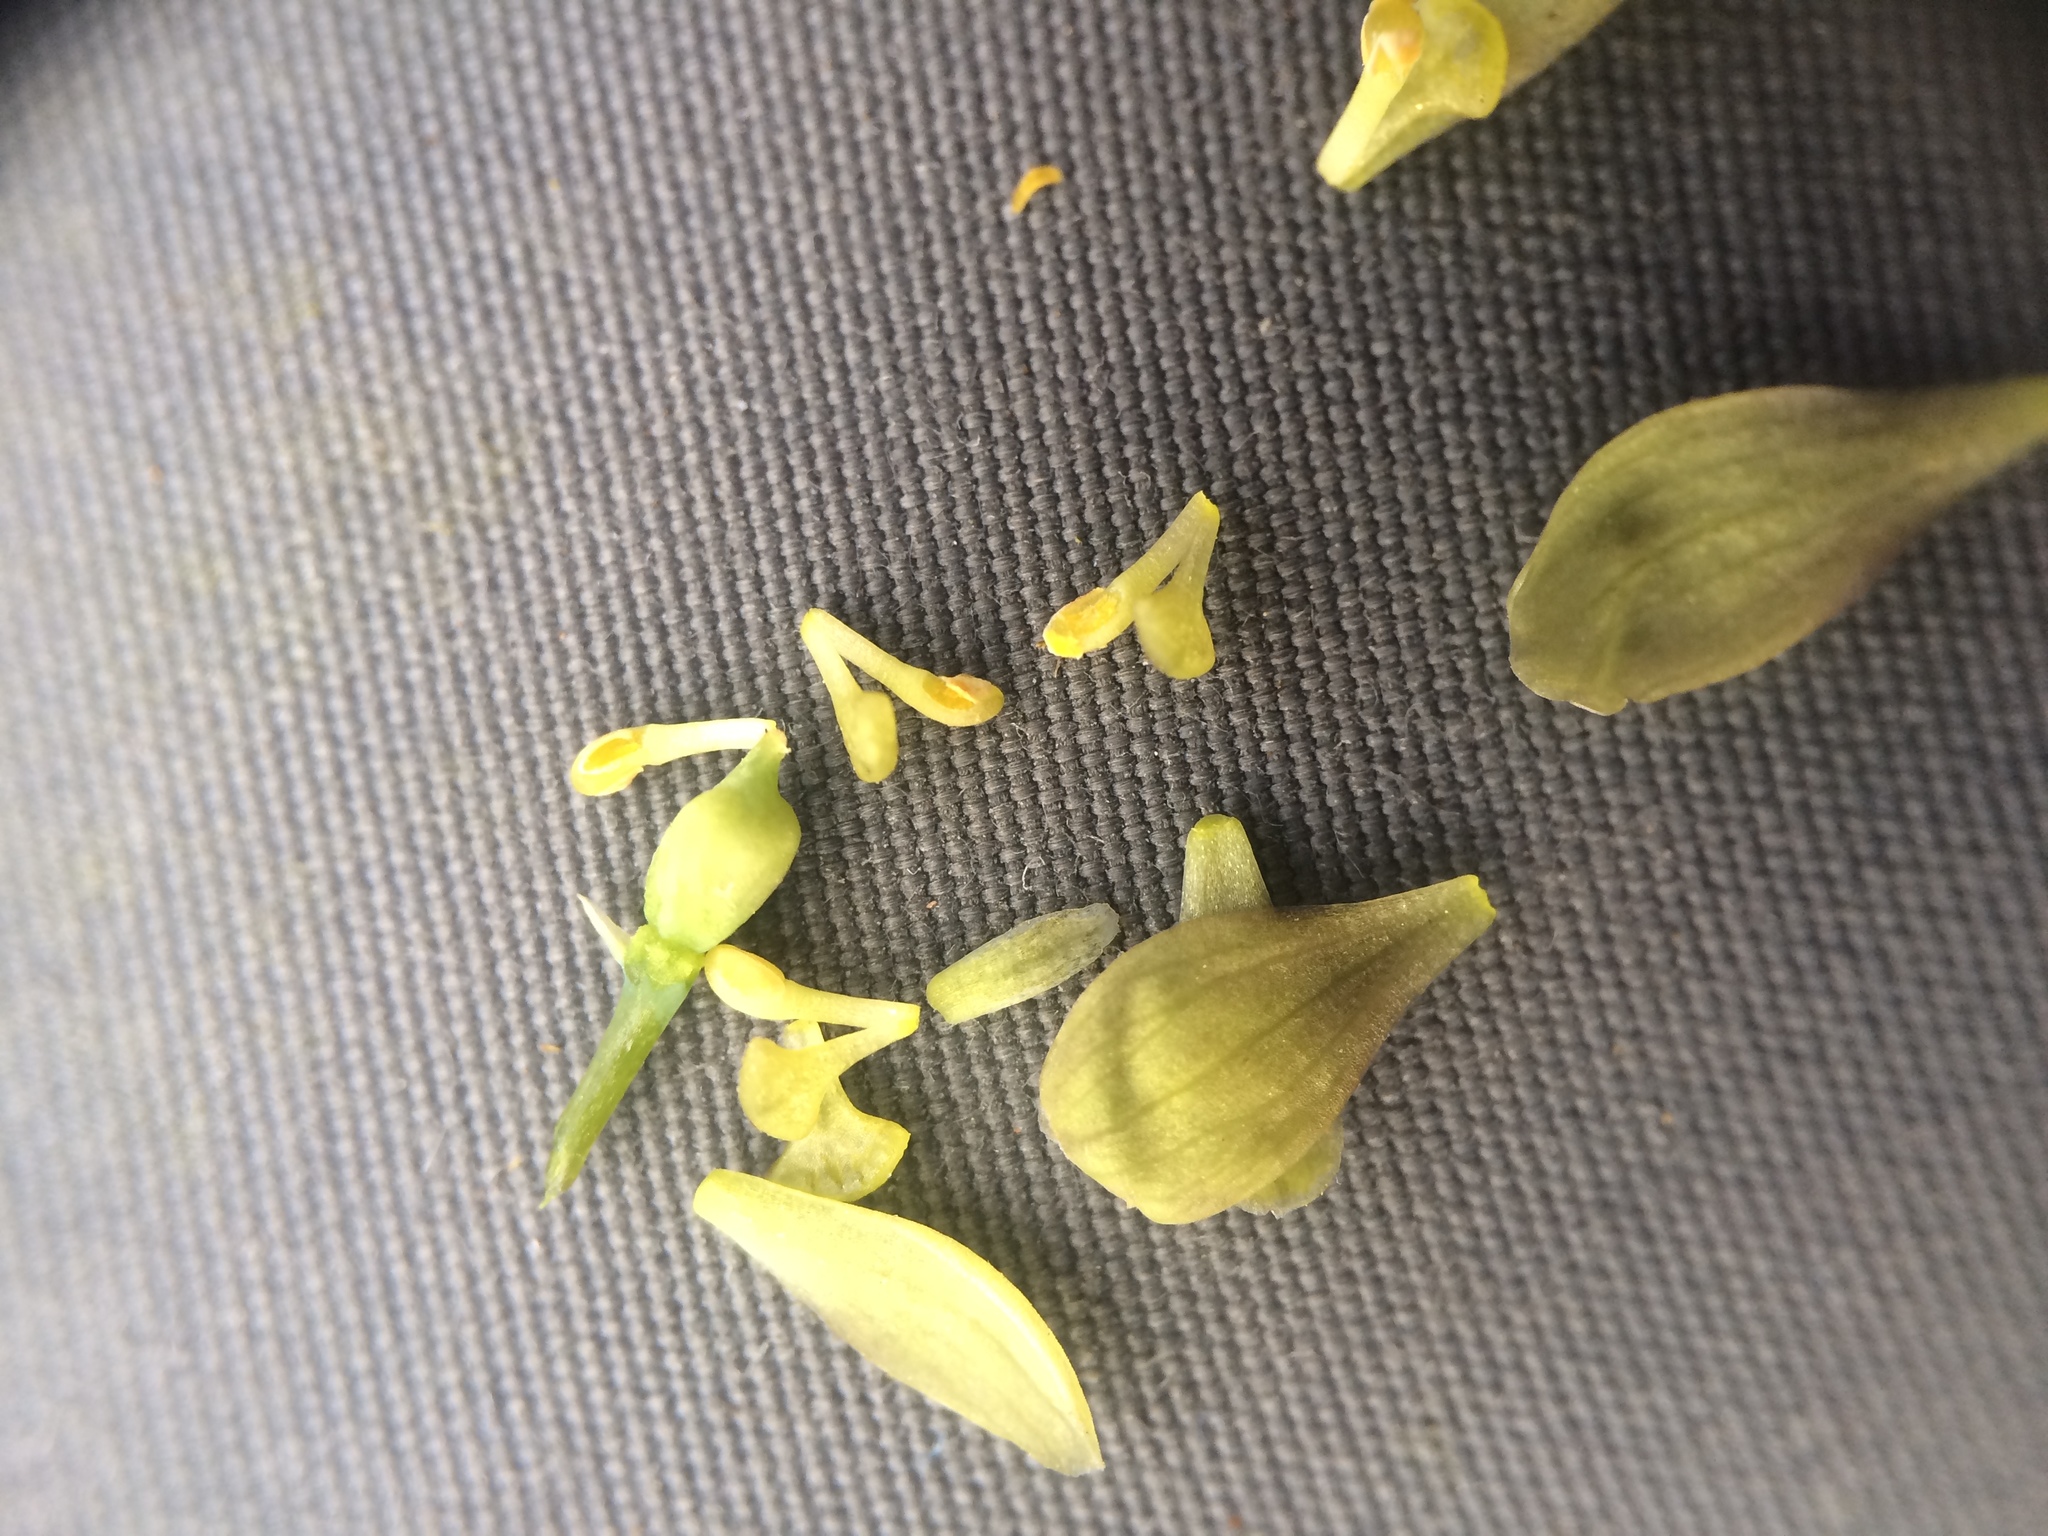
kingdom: Plantae
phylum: Tracheophyta
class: Magnoliopsida
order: Ranunculales
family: Berberidaceae
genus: Caulophyllum
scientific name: Caulophyllum
